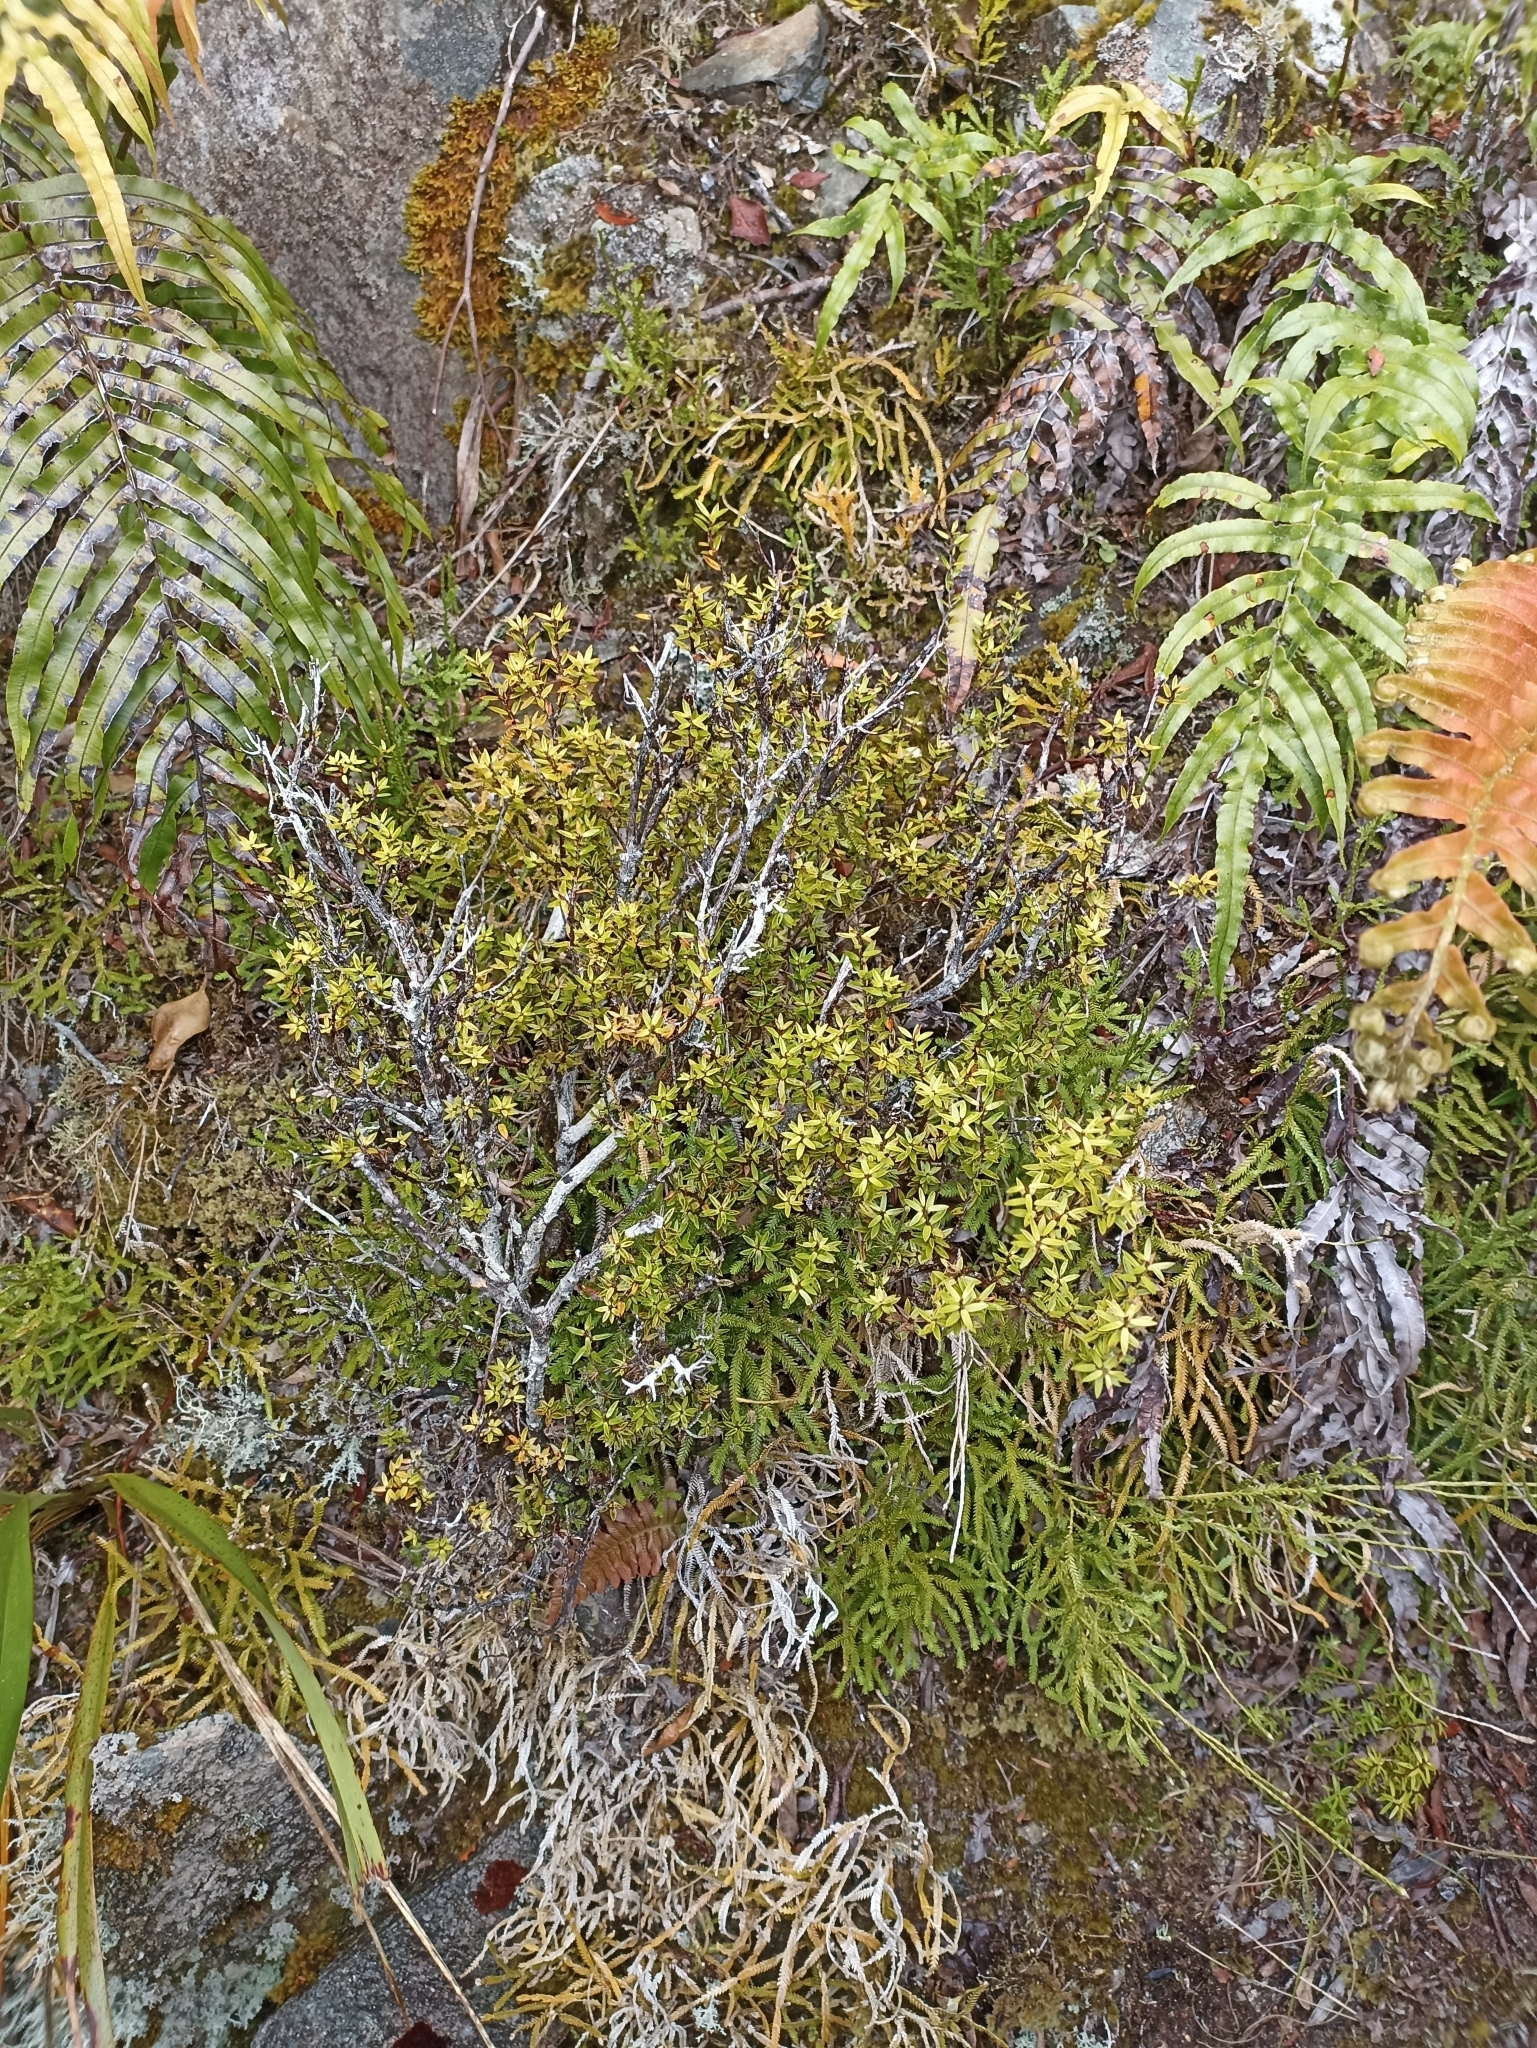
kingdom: Plantae
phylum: Tracheophyta
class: Magnoliopsida
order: Ericales
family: Ericaceae
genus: Archeria
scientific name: Archeria traversii
